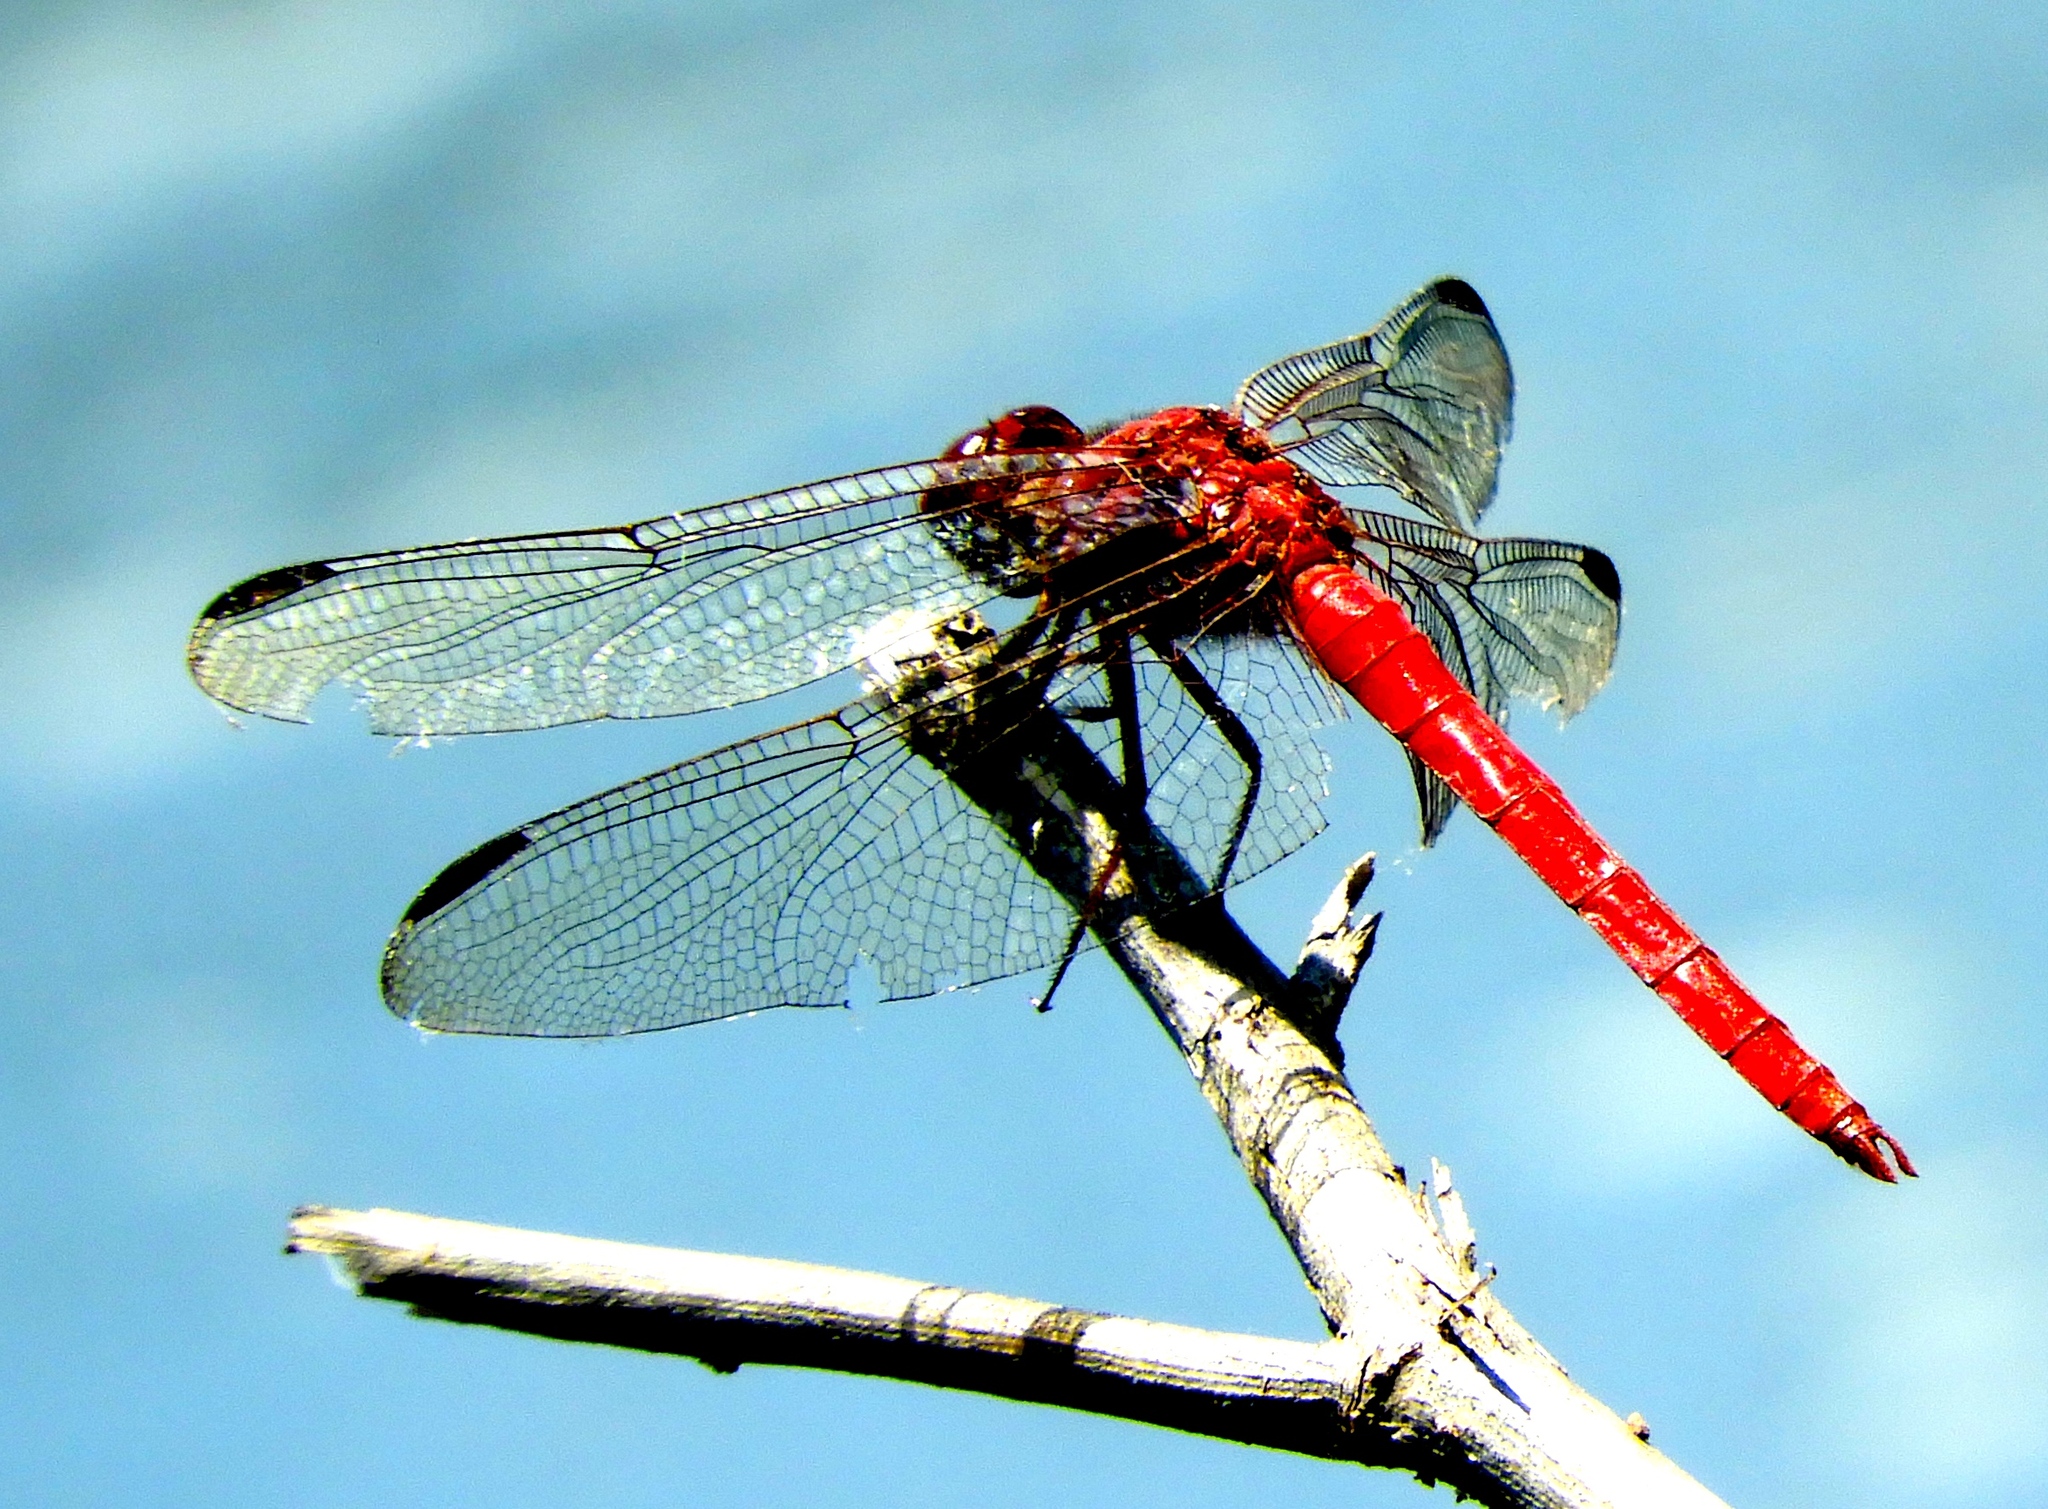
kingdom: Animalia
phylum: Arthropoda
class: Insecta
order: Odonata
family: Libellulidae
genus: Orthemis
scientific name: Orthemis schmidti
